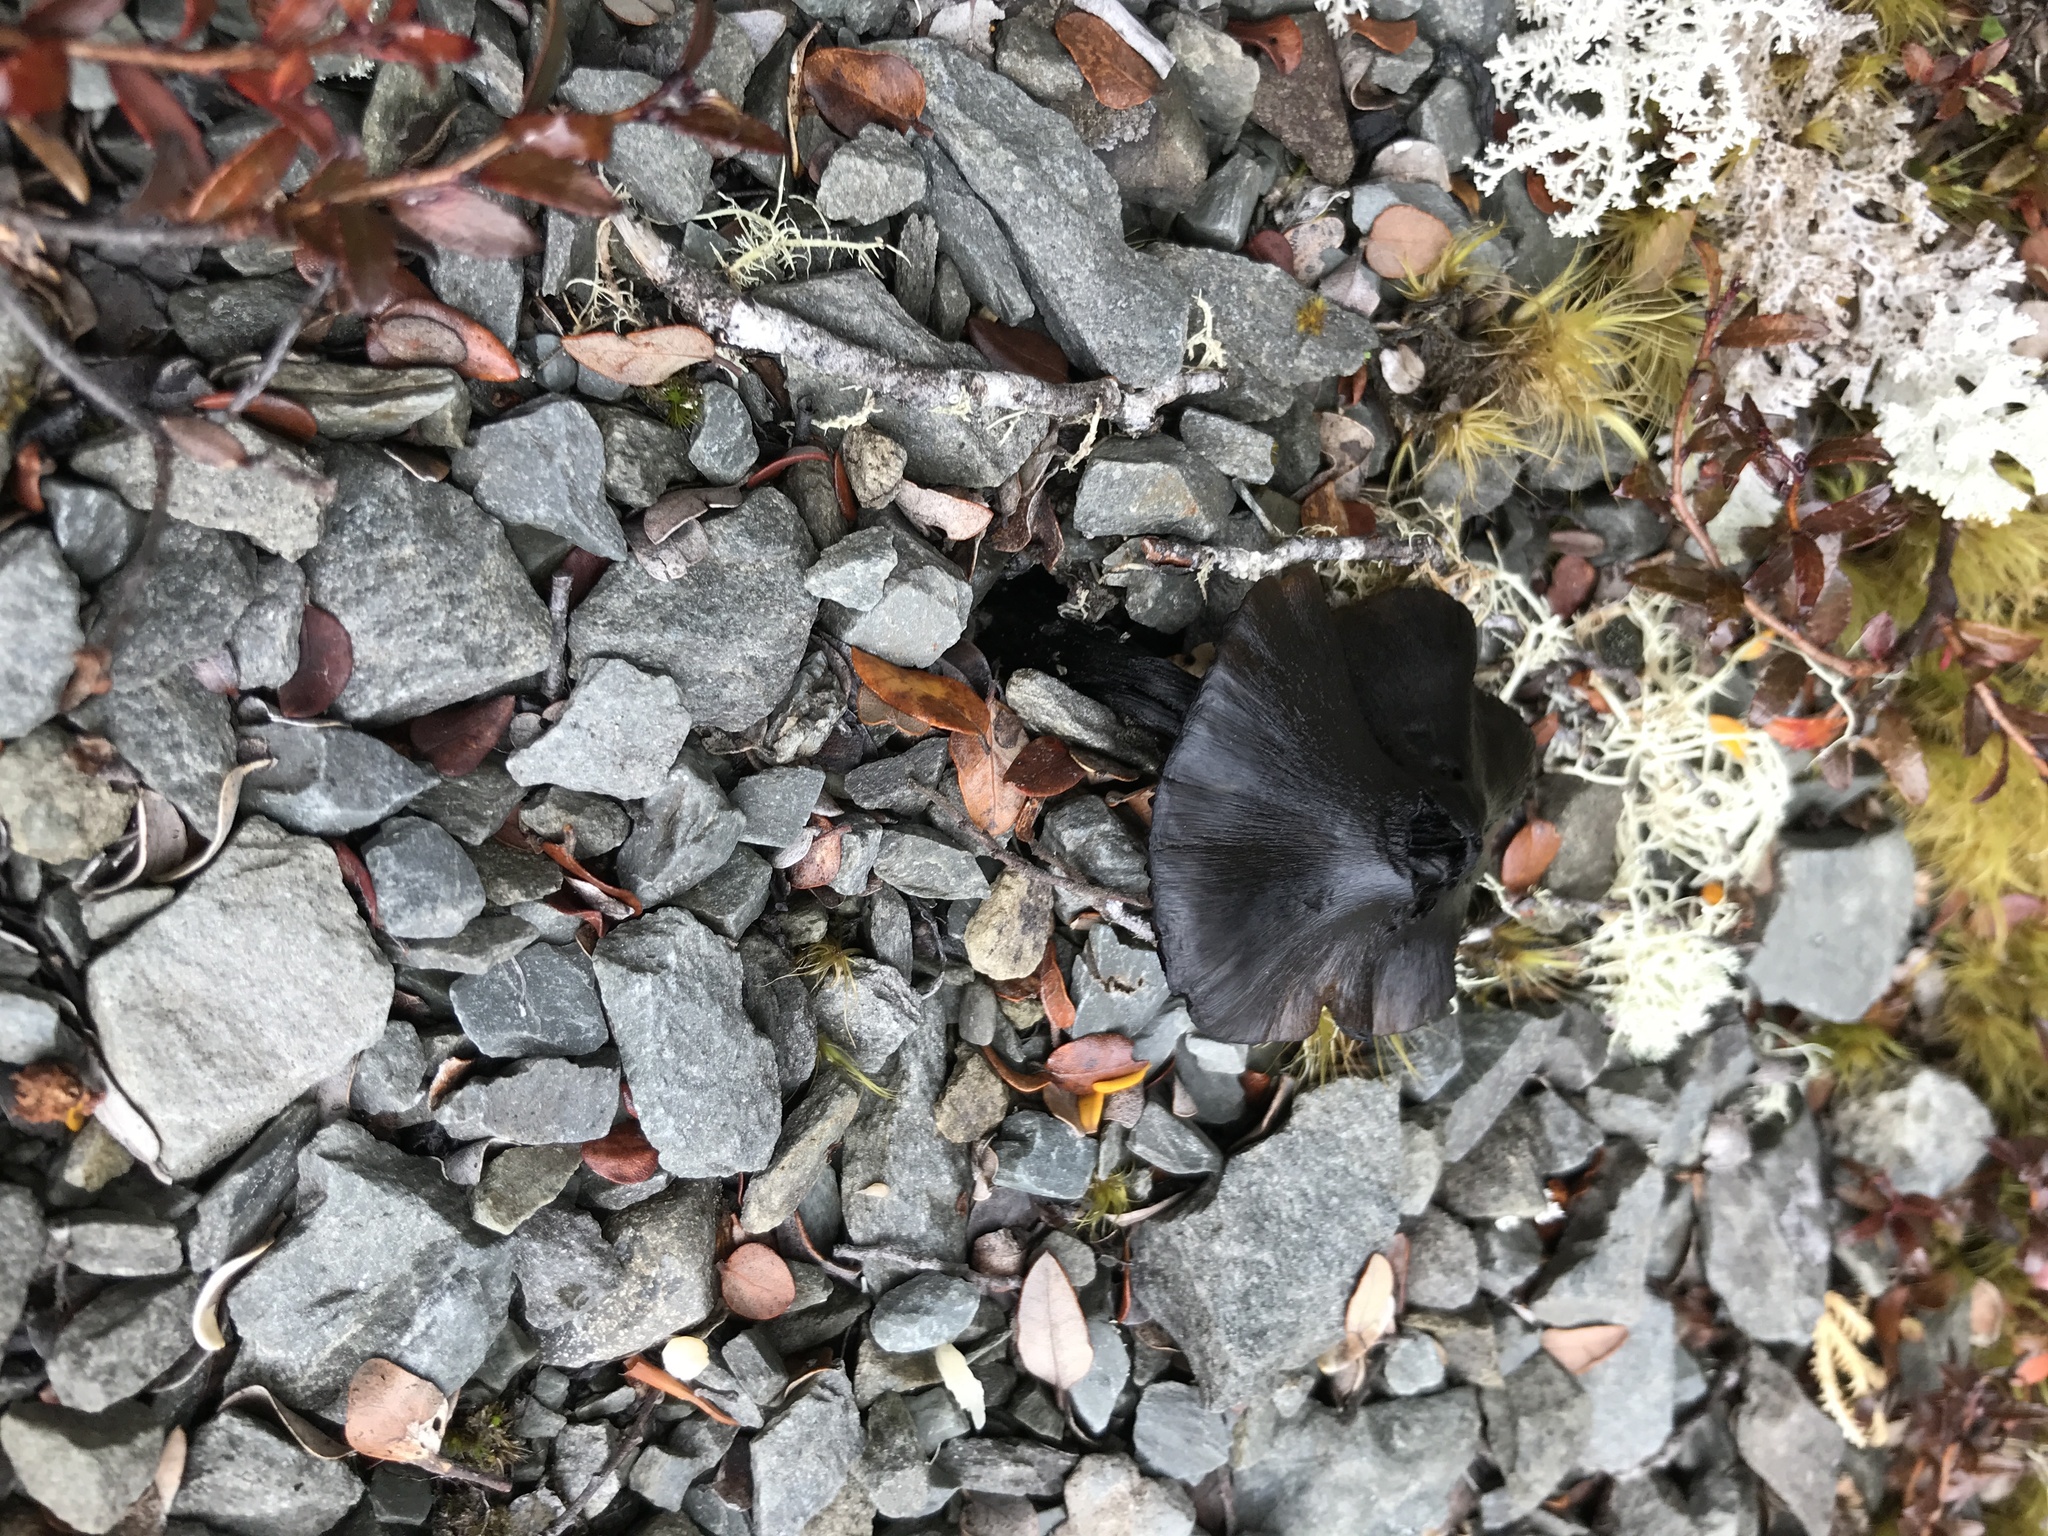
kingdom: Fungi
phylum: Basidiomycota
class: Agaricomycetes
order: Agaricales
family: Hygrophoraceae
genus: Hygrocybe
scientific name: Hygrocybe conica
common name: Blackening wax-cap
